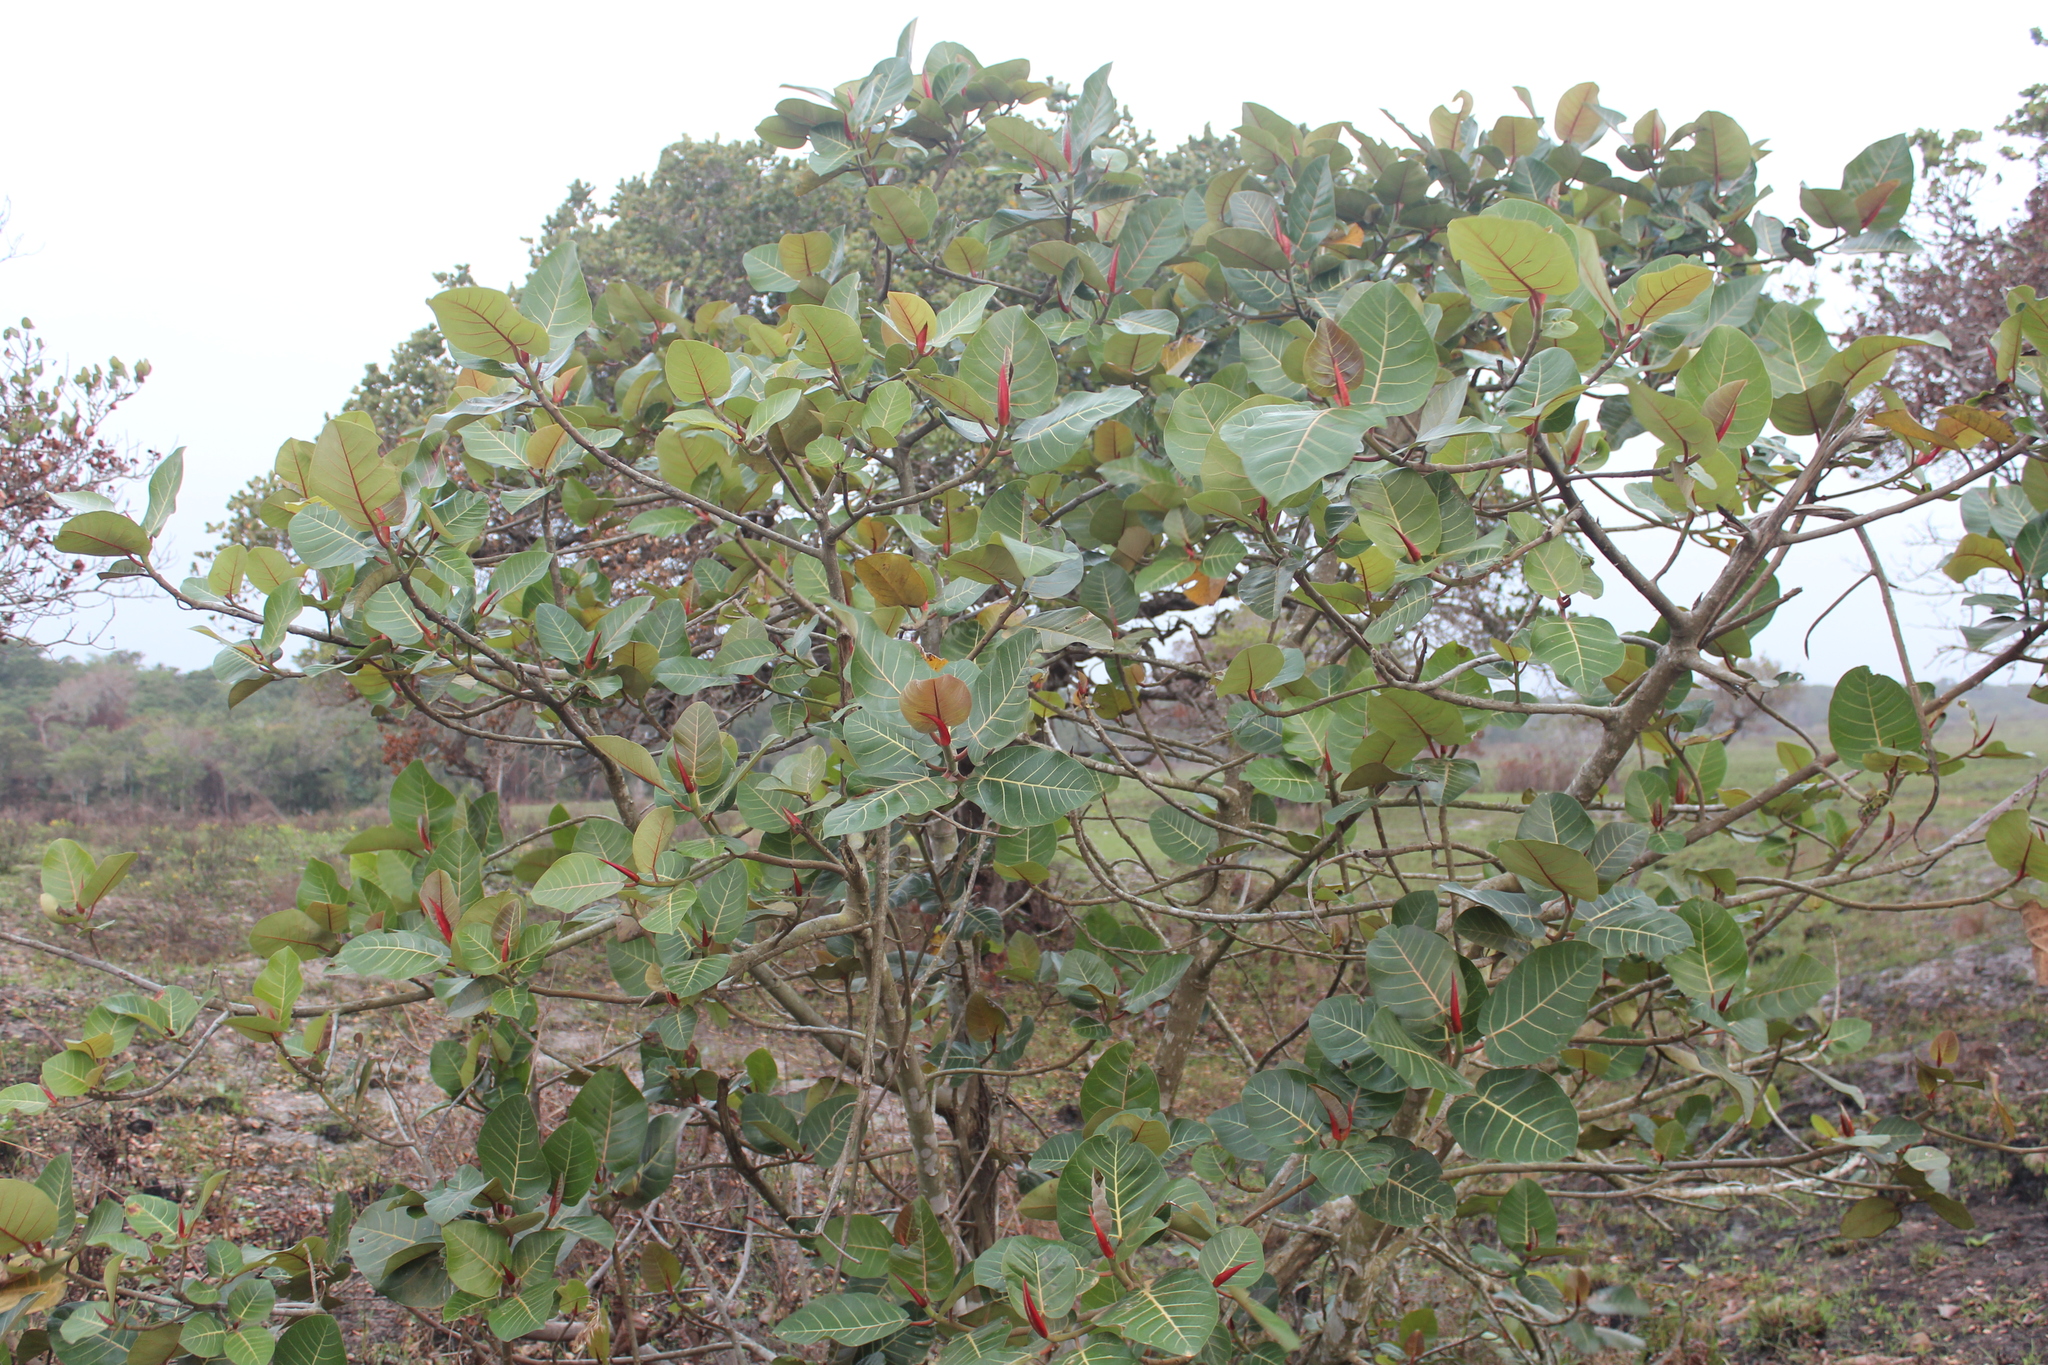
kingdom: Plantae
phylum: Tracheophyta
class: Magnoliopsida
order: Rosales
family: Moraceae
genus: Ficus
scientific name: Ficus trichopoda
